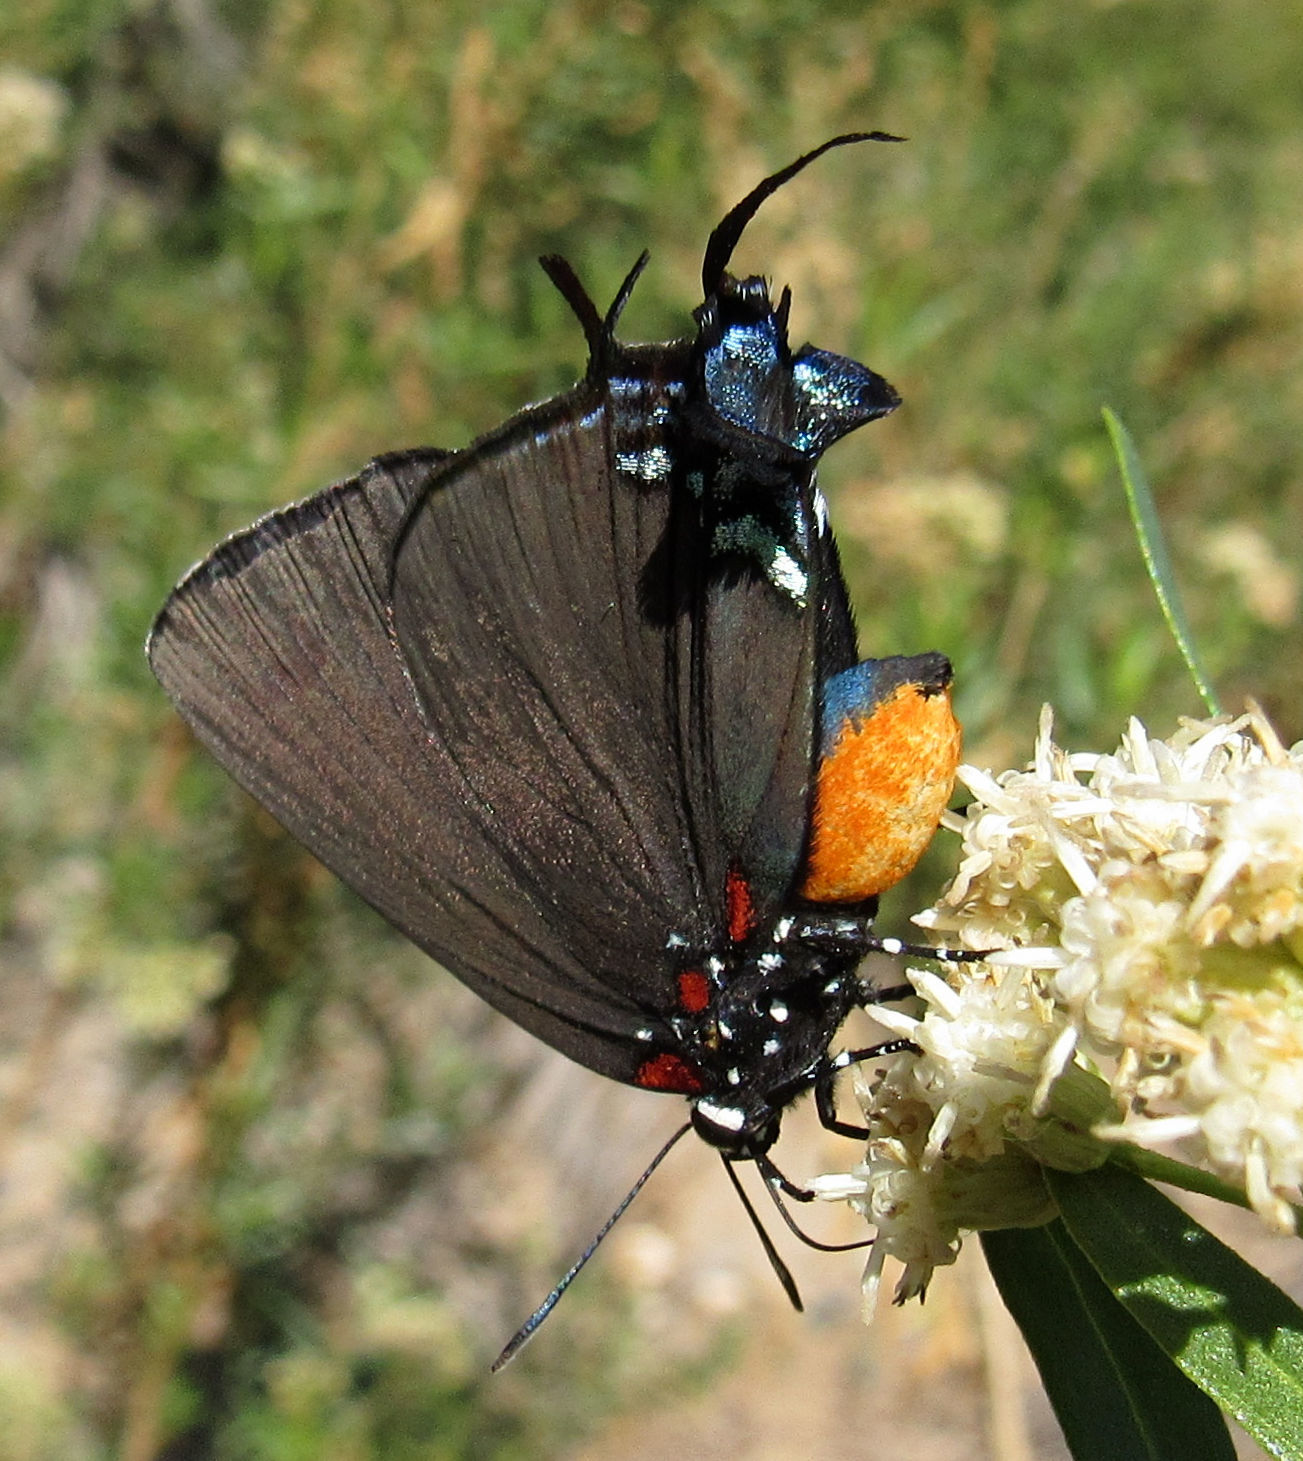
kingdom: Animalia
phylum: Arthropoda
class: Insecta
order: Lepidoptera
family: Lycaenidae
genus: Atlides
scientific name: Atlides halesus
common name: Great purple hairstreak
